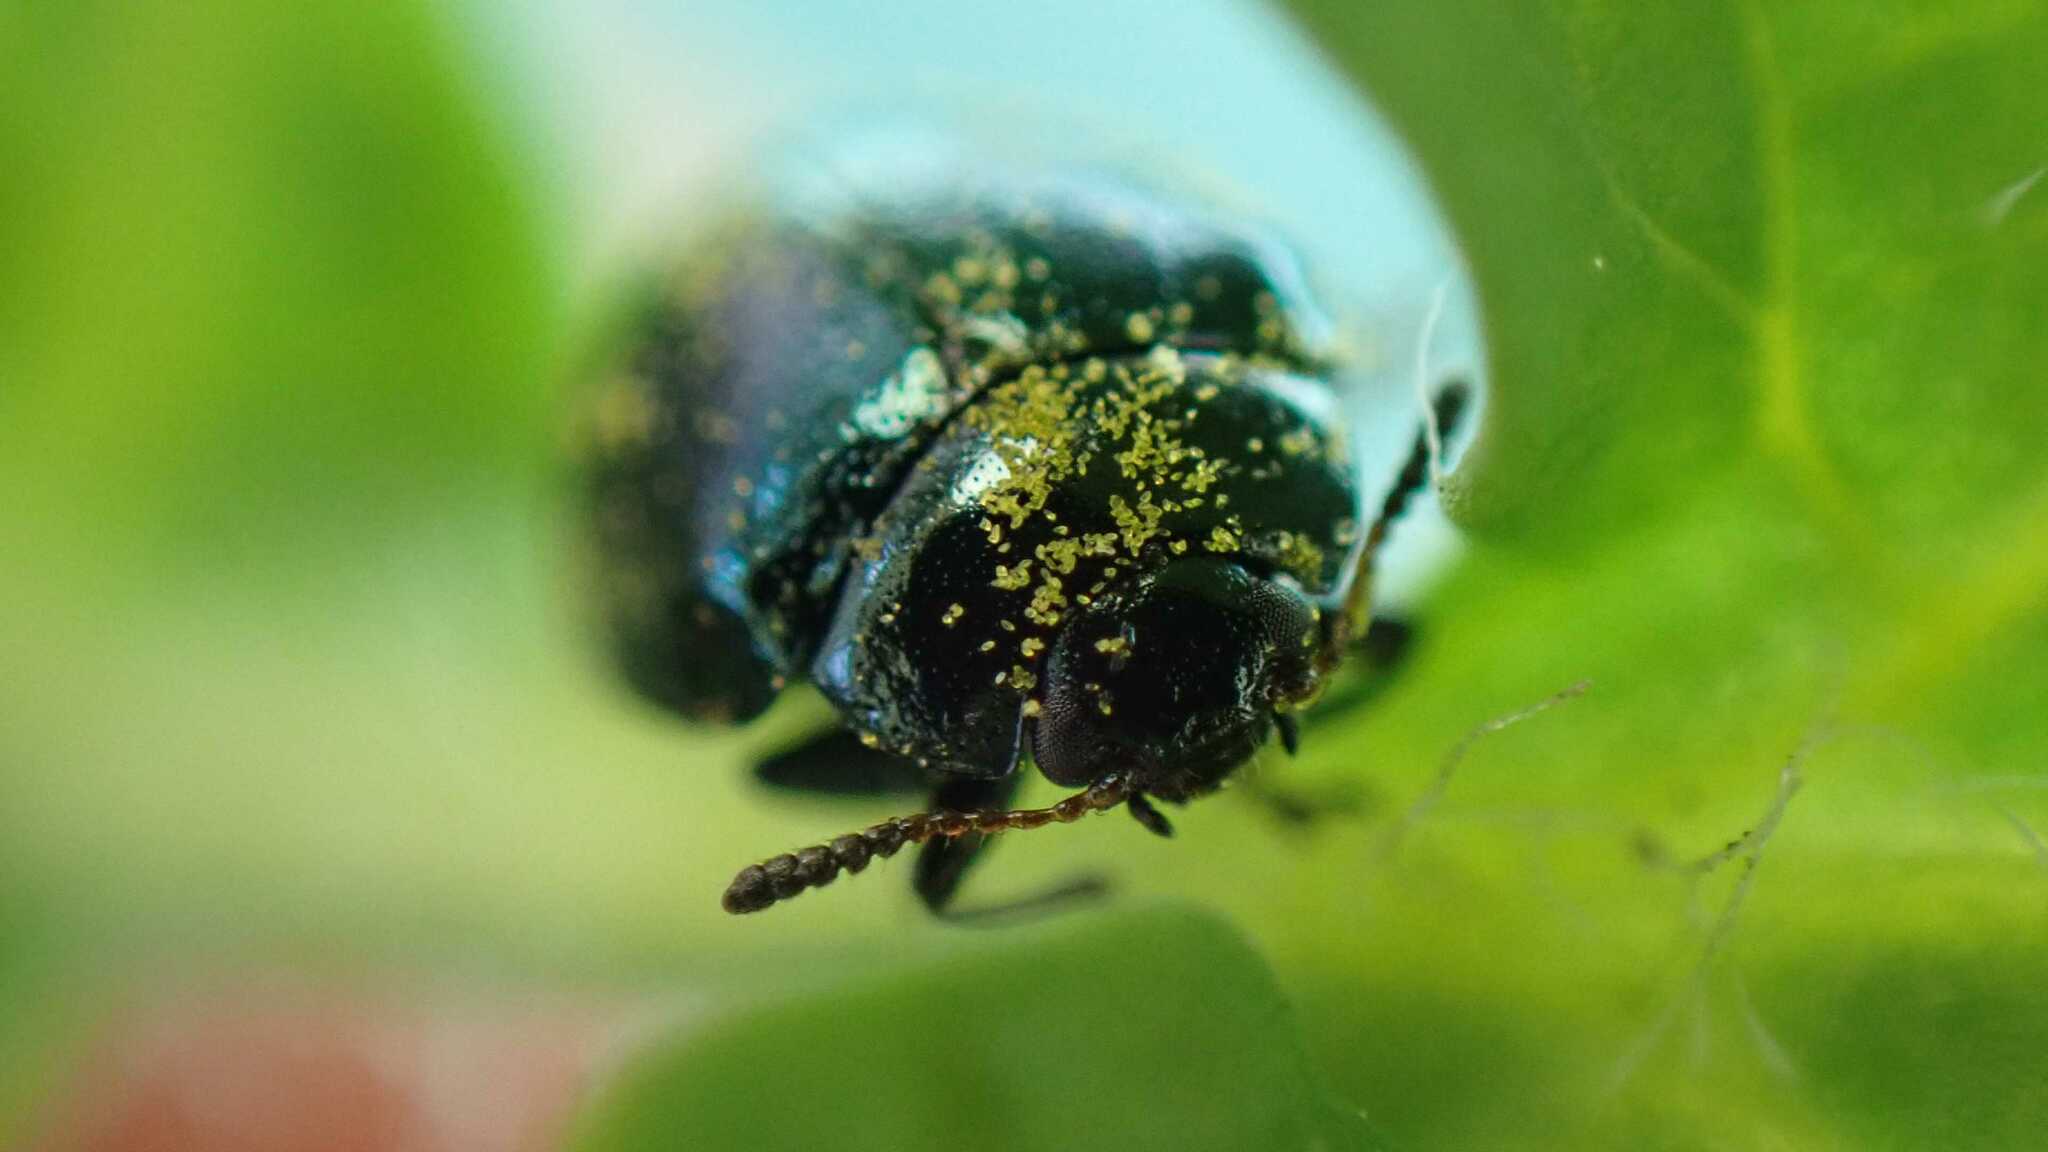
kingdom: Animalia
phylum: Arthropoda
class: Insecta
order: Coleoptera
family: Chrysomelidae
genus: Plagiodera
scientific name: Plagiodera versicolora
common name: Imported willow leaf beetle
